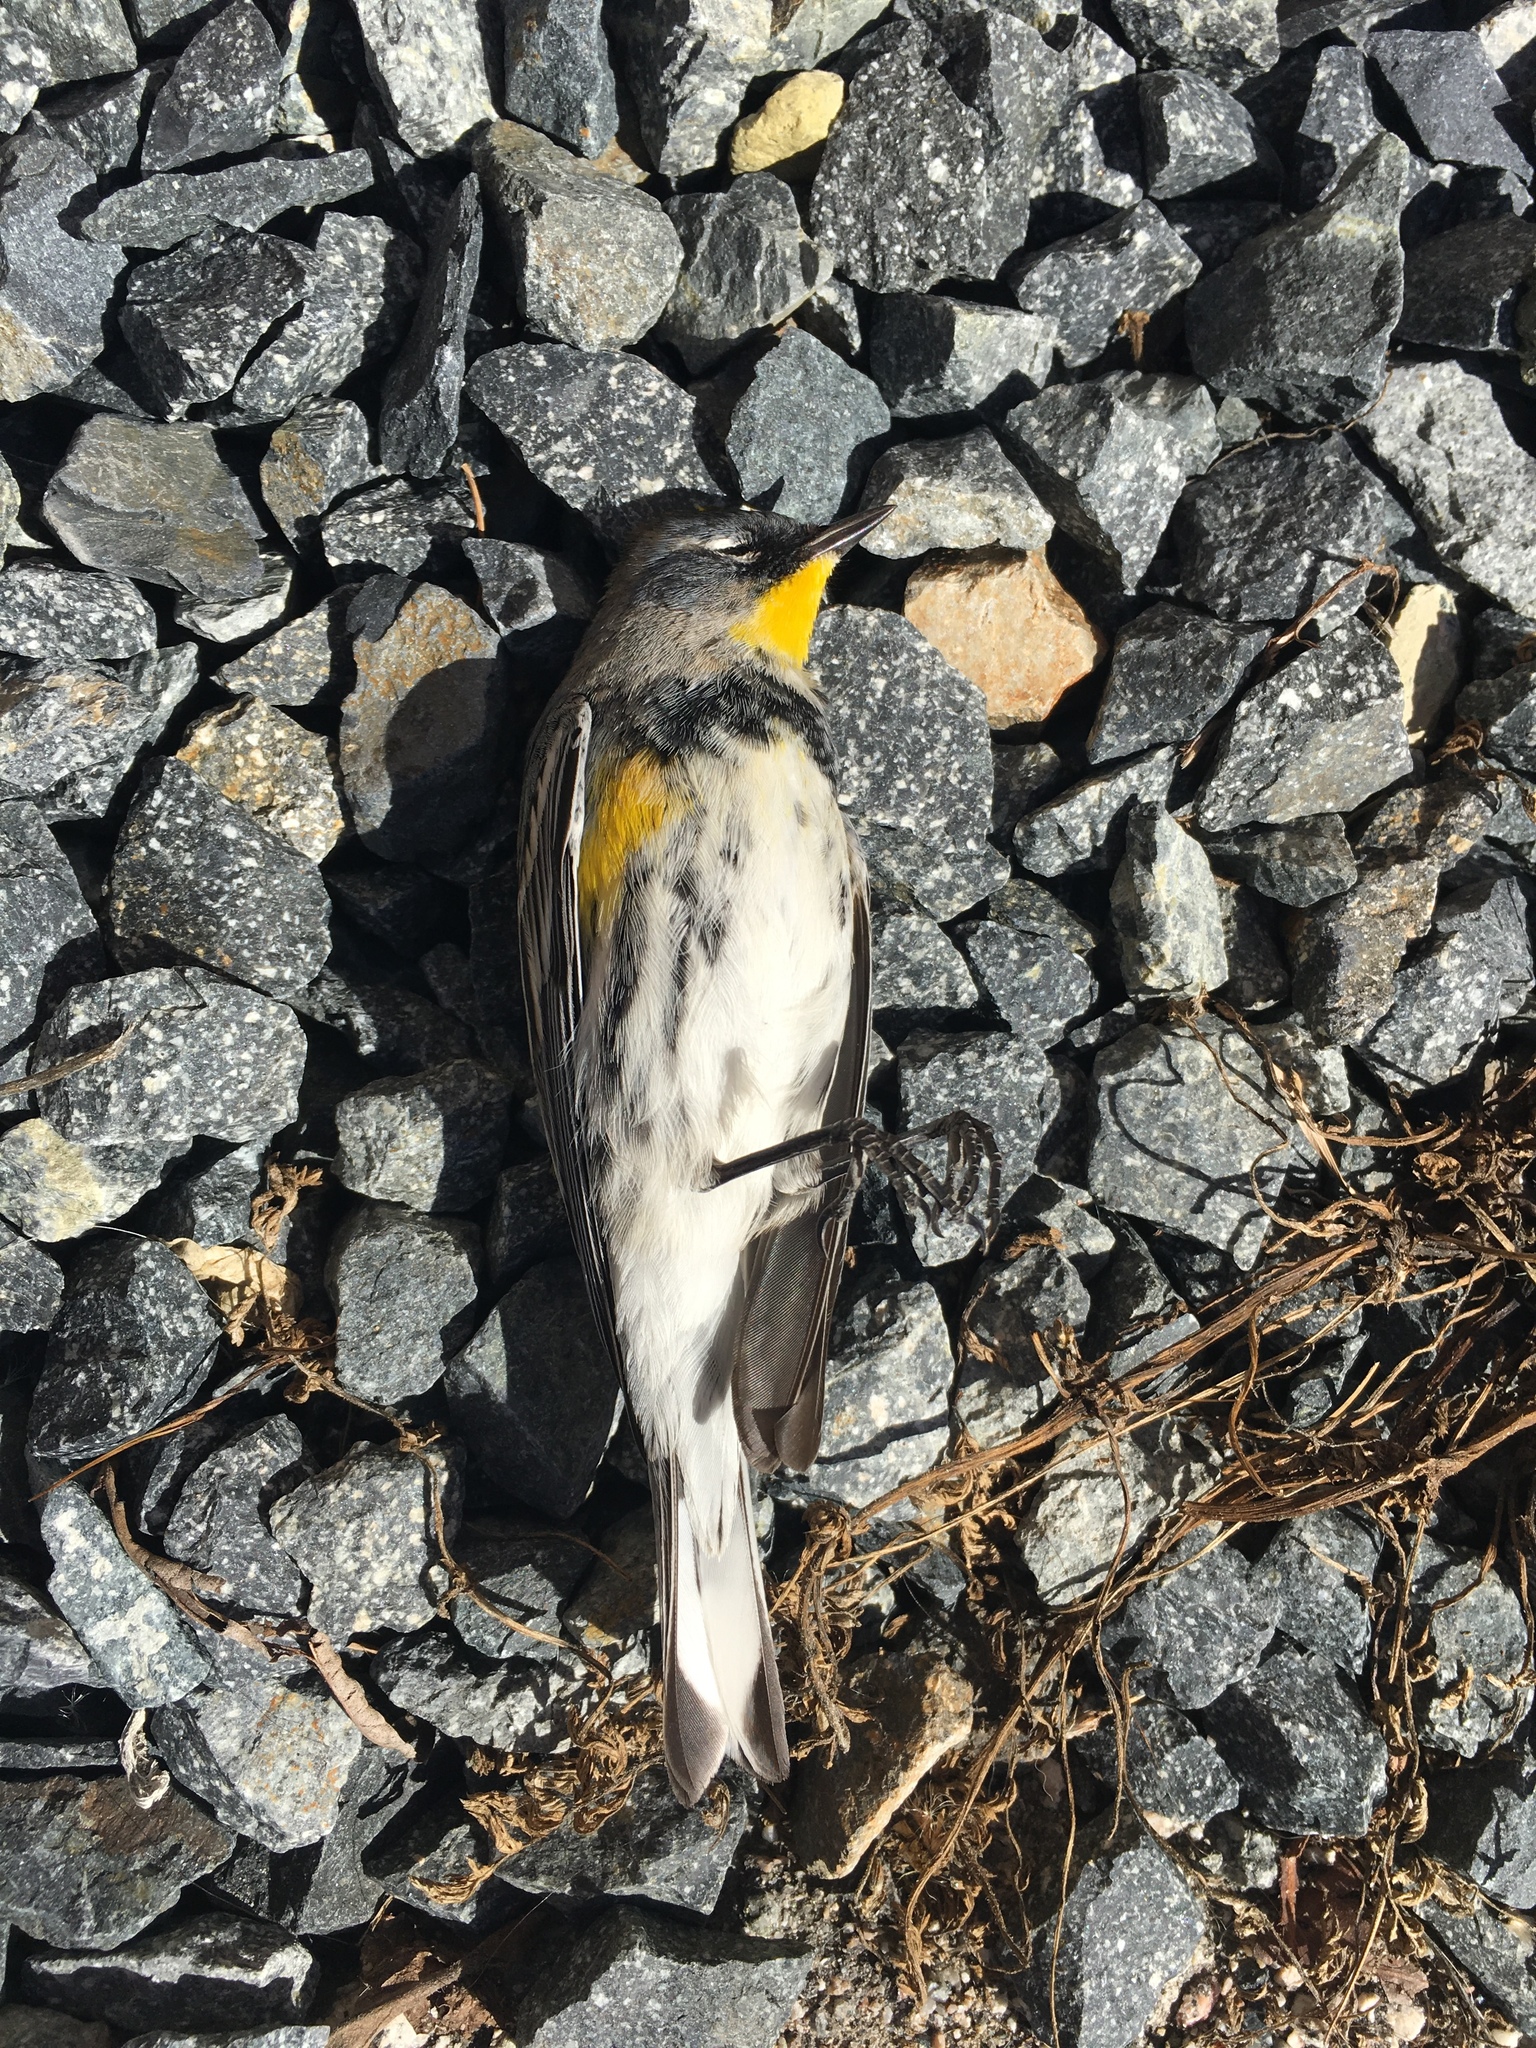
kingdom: Animalia
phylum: Chordata
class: Aves
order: Passeriformes
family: Parulidae
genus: Setophaga
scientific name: Setophaga coronata
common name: Myrtle warbler
